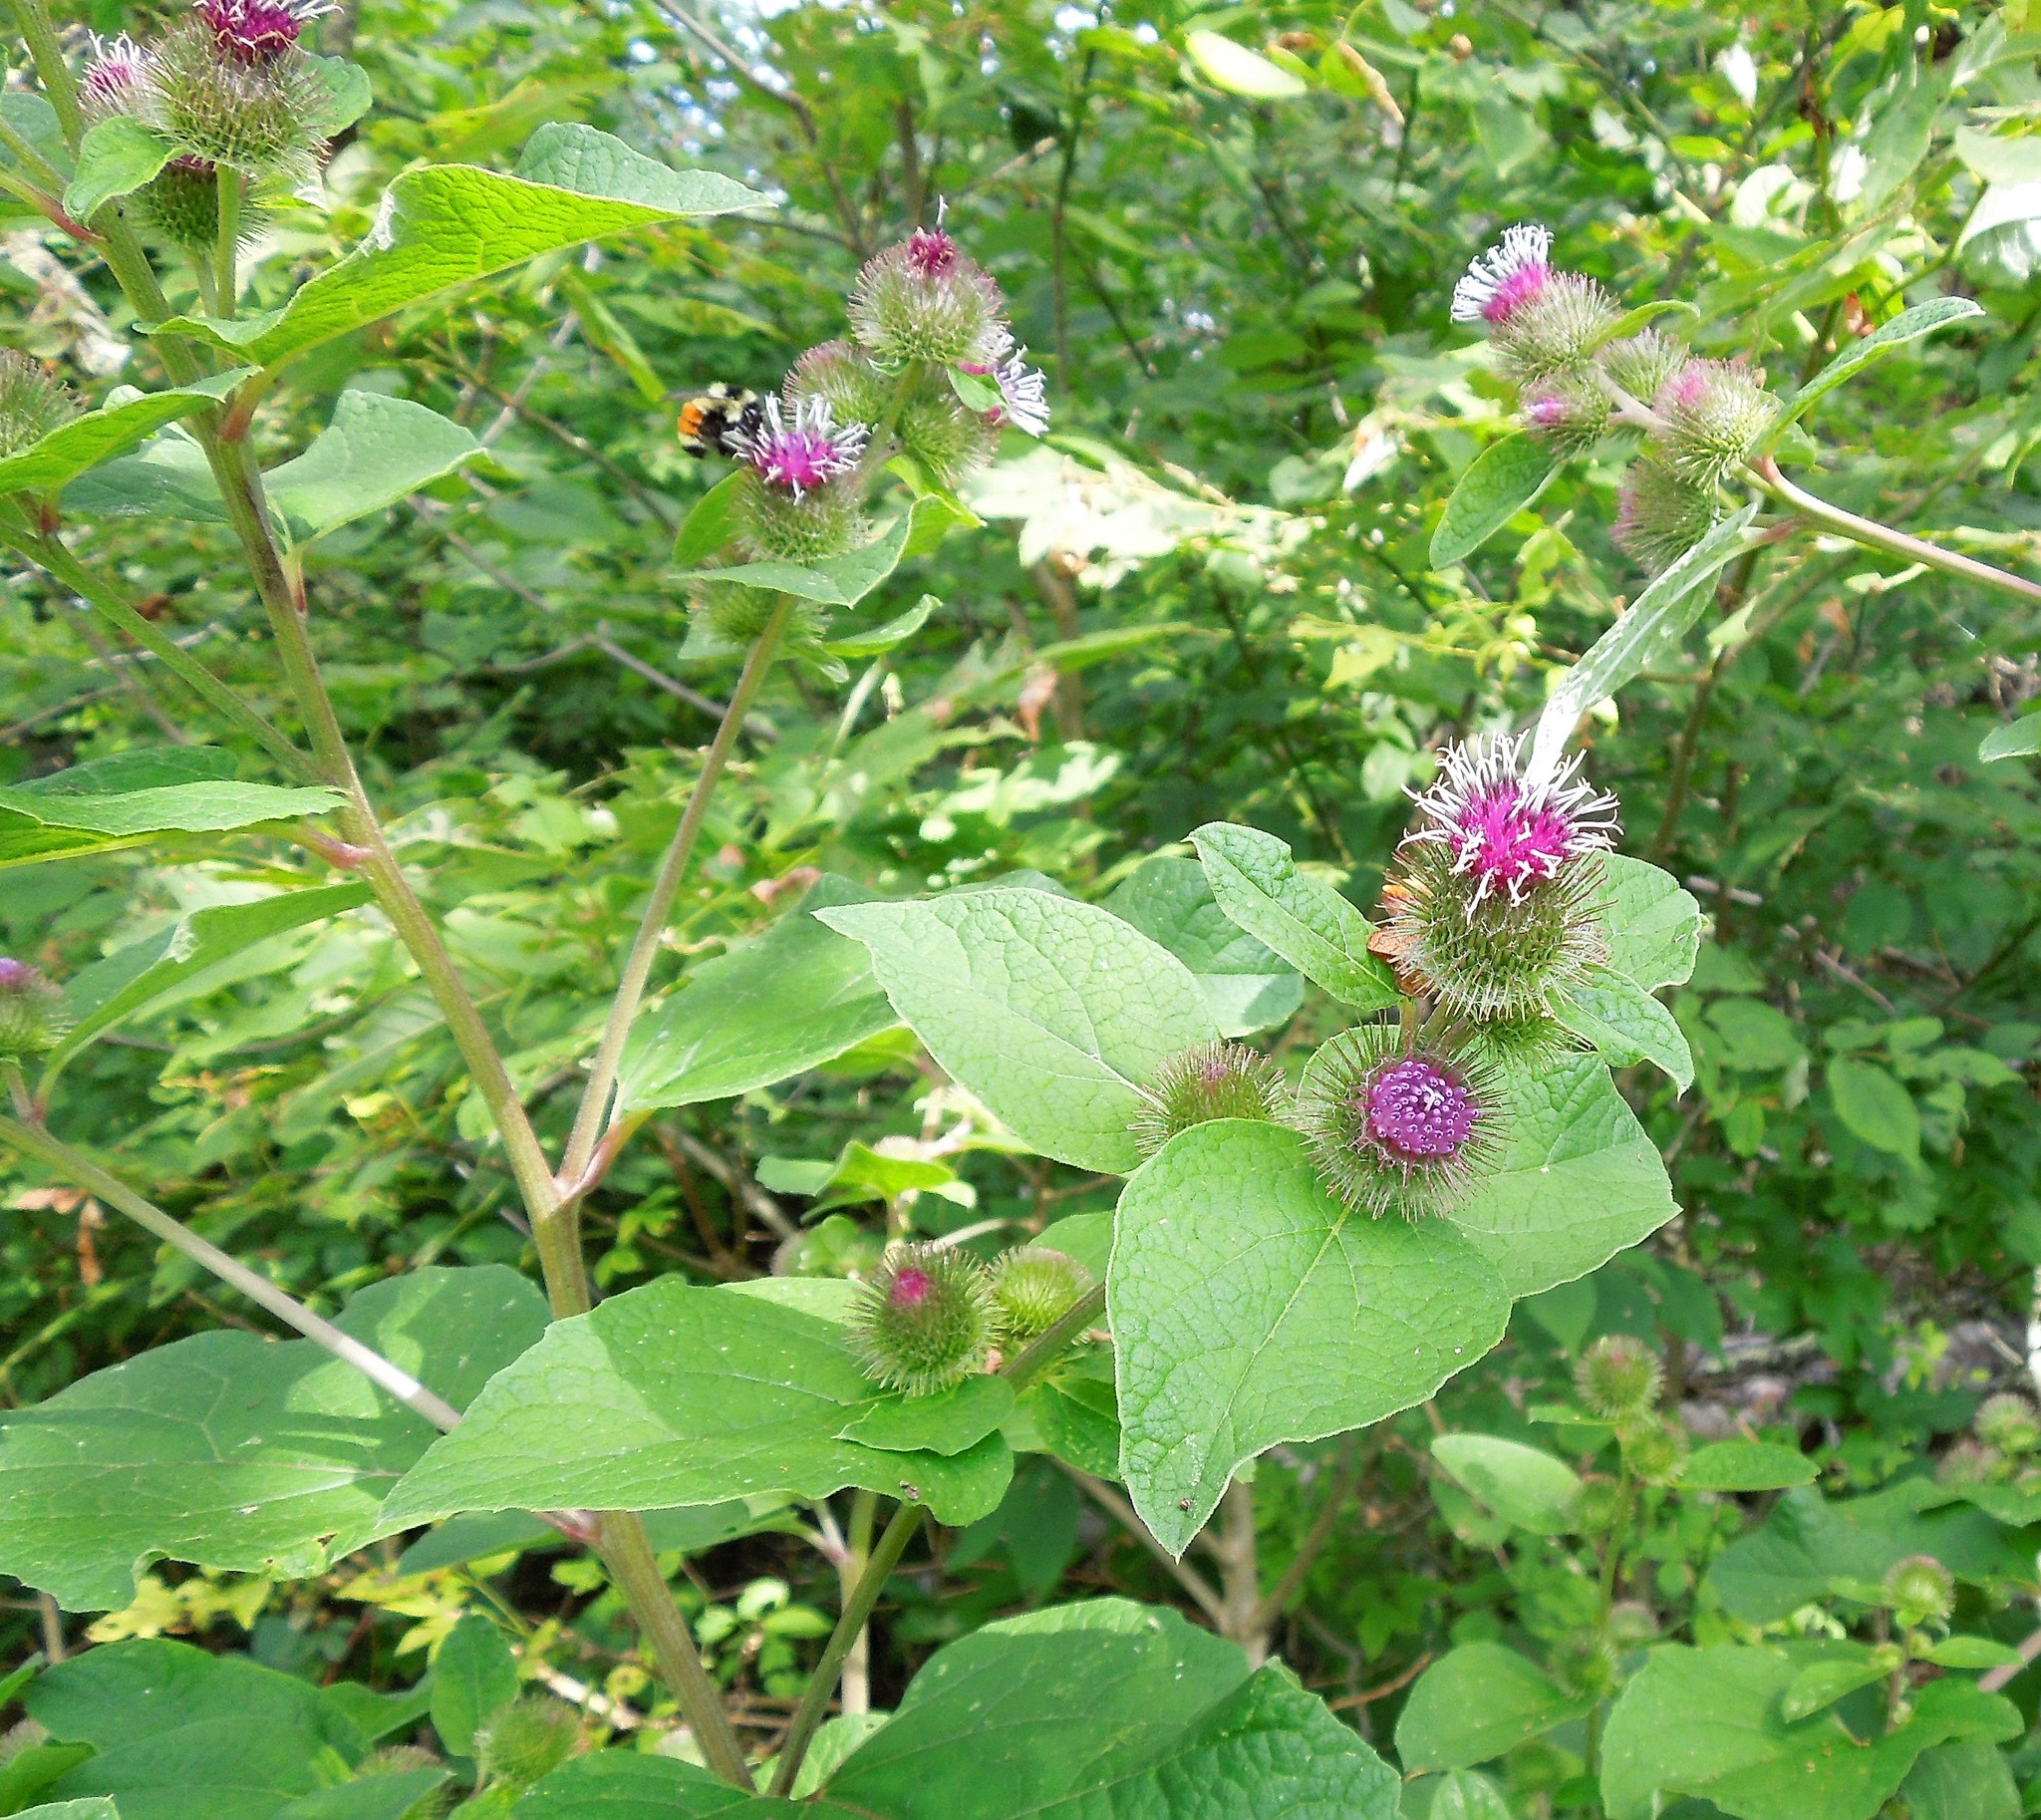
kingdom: Plantae
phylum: Tracheophyta
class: Magnoliopsida
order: Asterales
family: Asteraceae
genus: Arctium
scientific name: Arctium minus
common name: Lesser burdock
